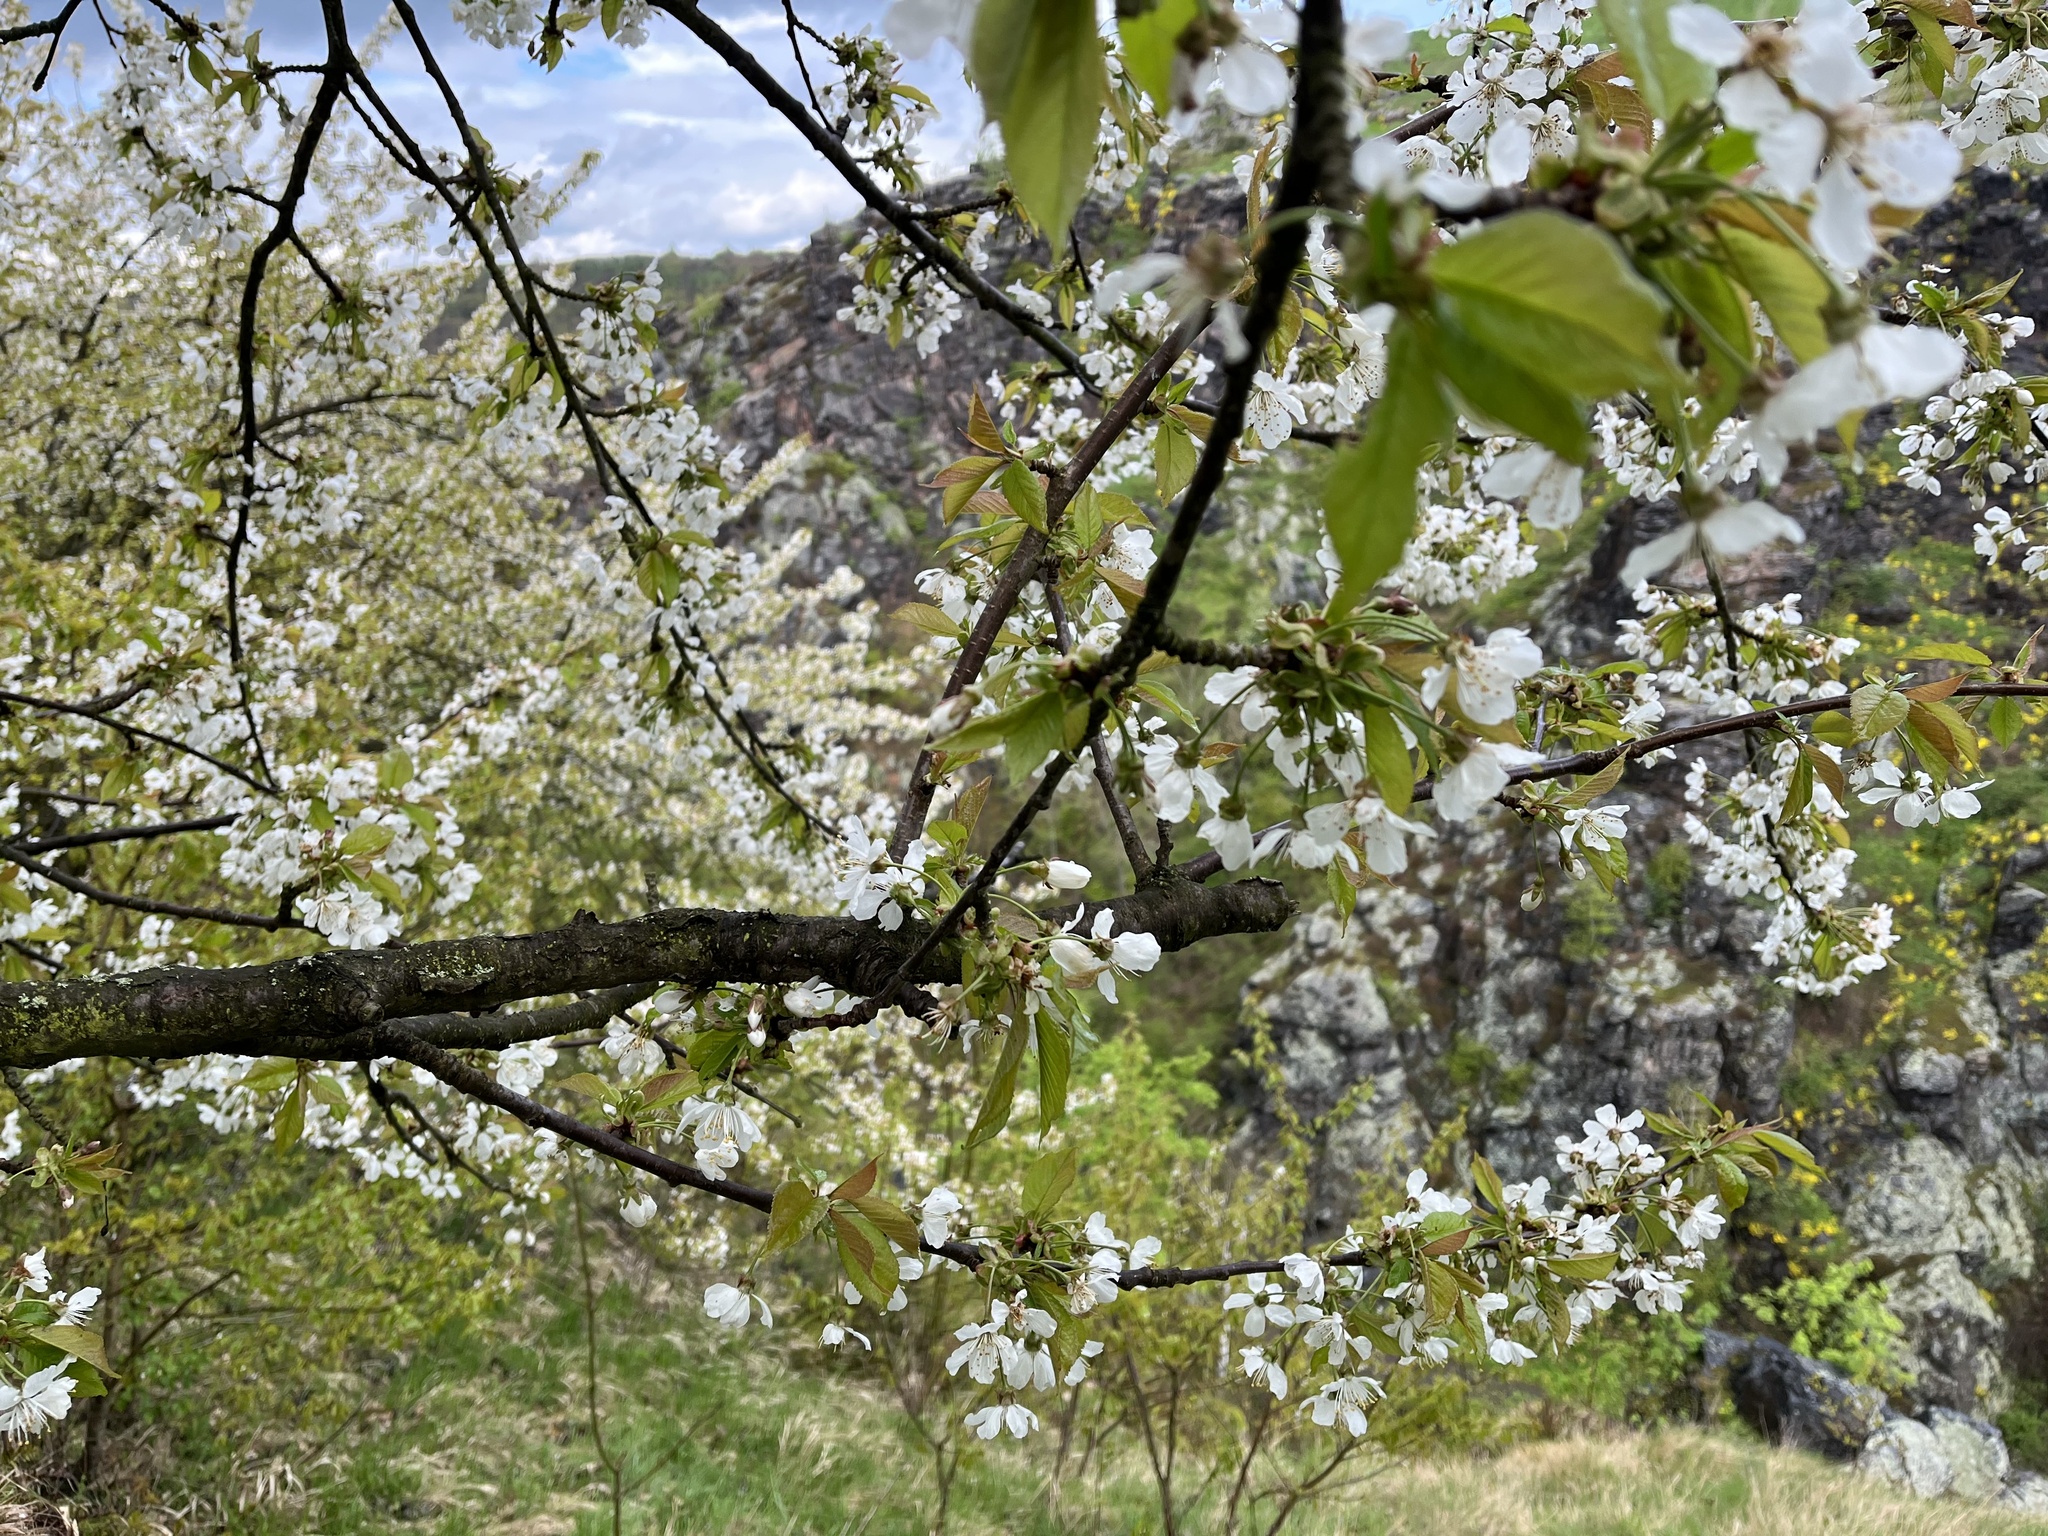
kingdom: Plantae
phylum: Tracheophyta
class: Magnoliopsida
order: Rosales
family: Rosaceae
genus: Prunus
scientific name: Prunus avium
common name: Sweet cherry
